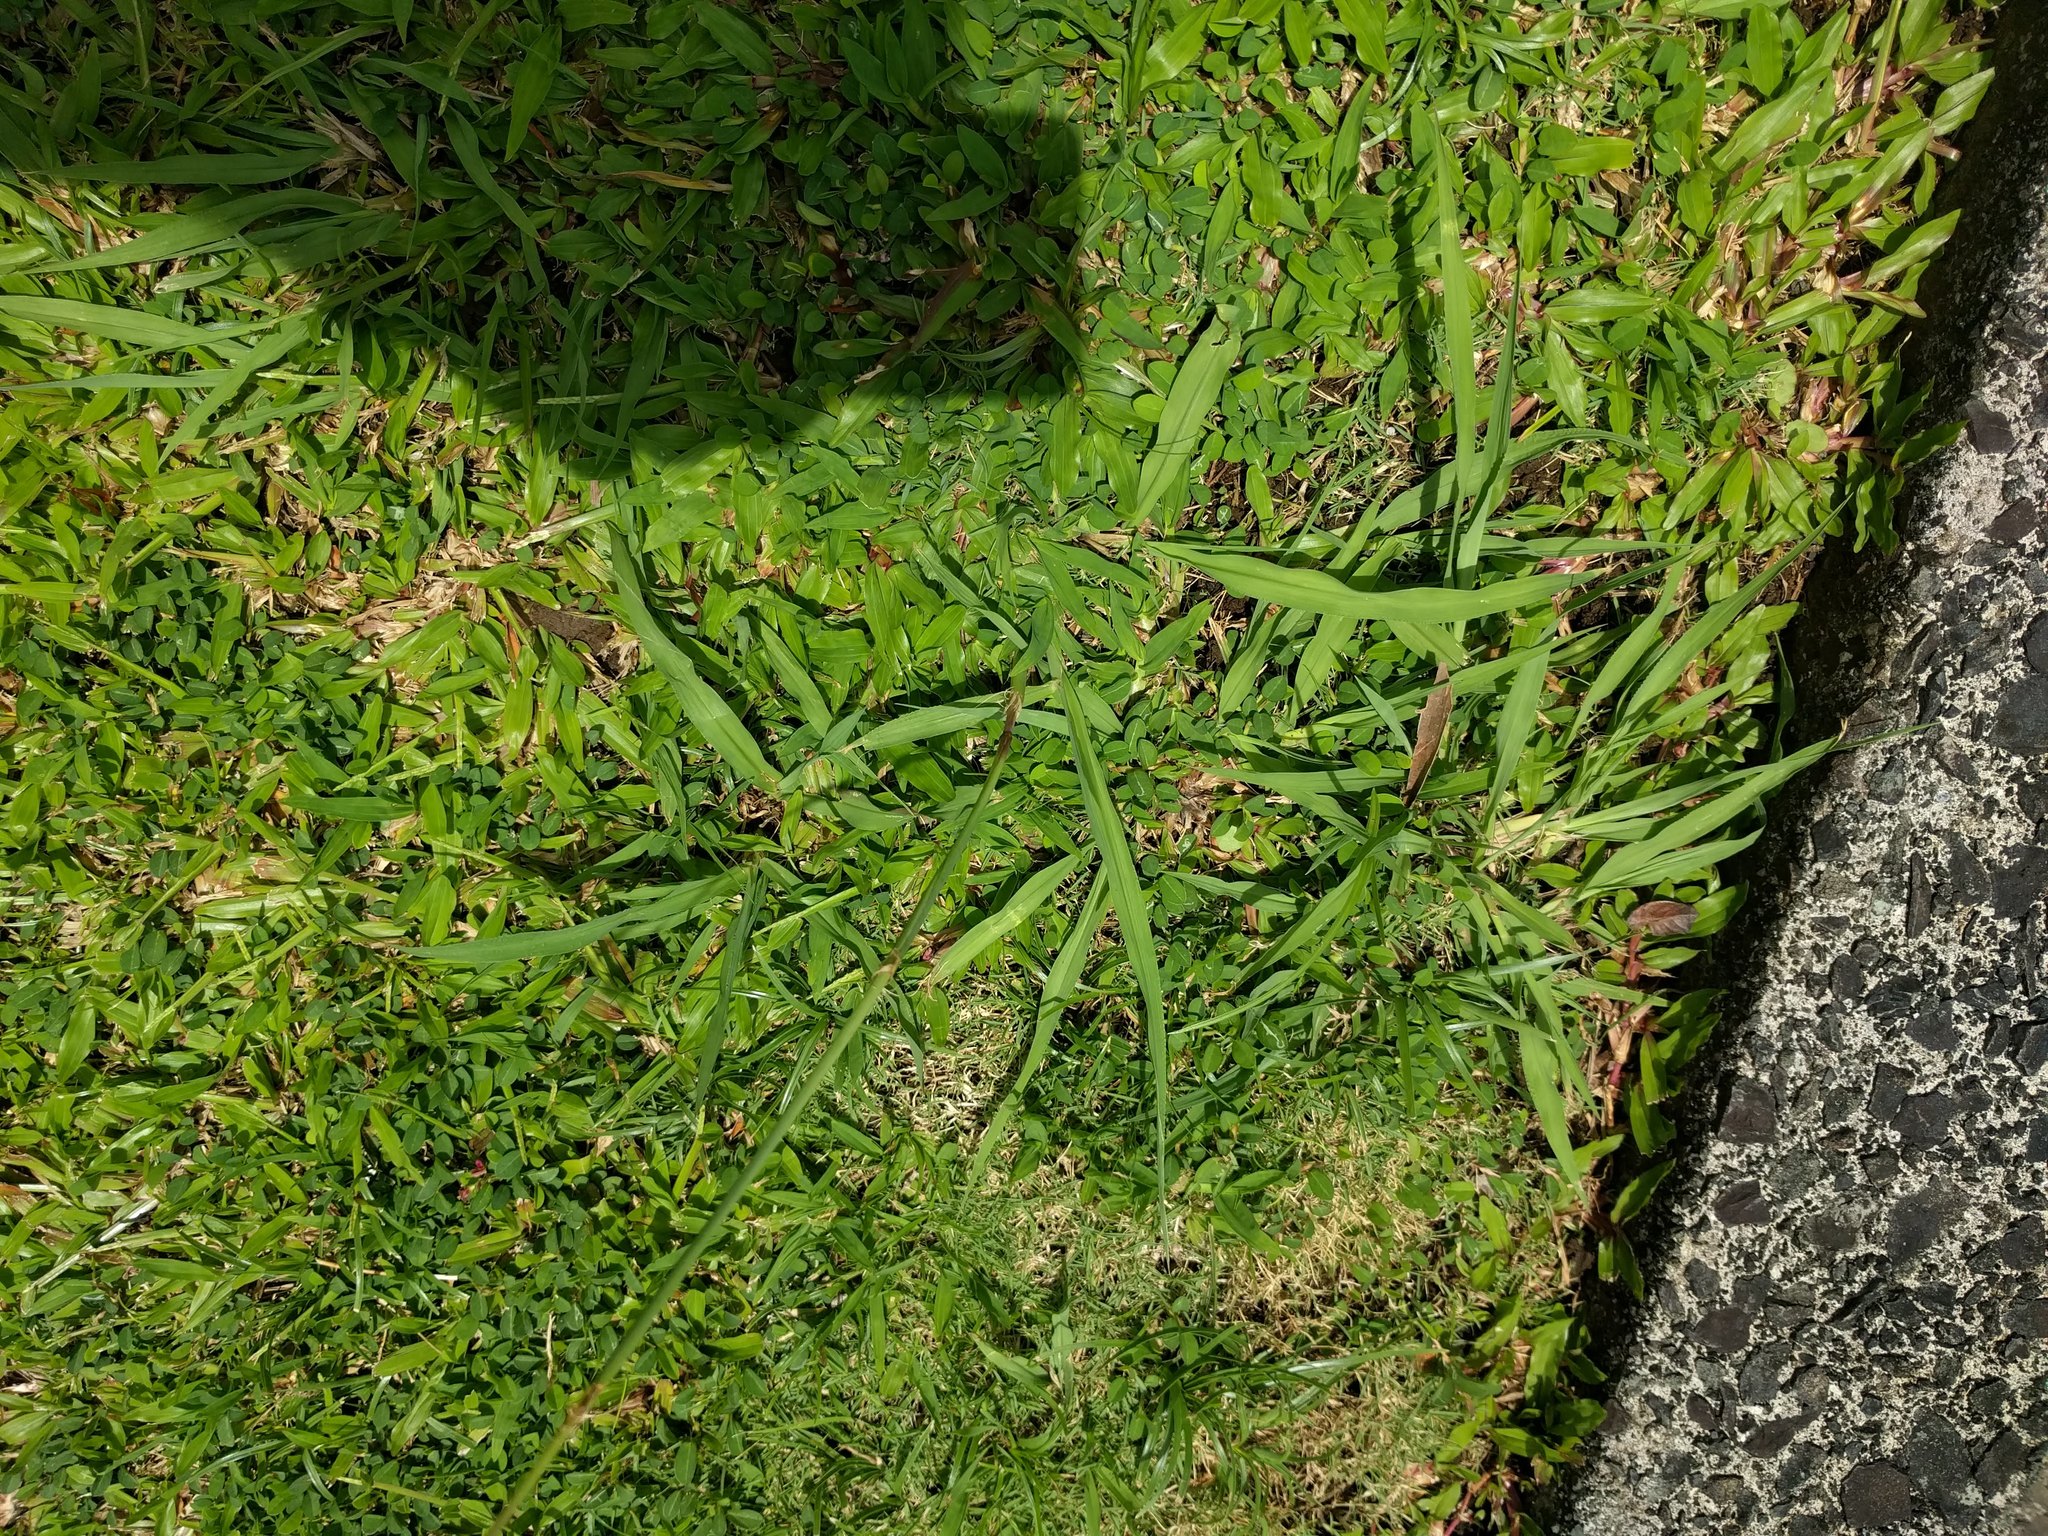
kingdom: Plantae
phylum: Tracheophyta
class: Liliopsida
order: Poales
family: Poaceae
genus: Paspalum
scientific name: Paspalum urvillei
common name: Vasey's grass
